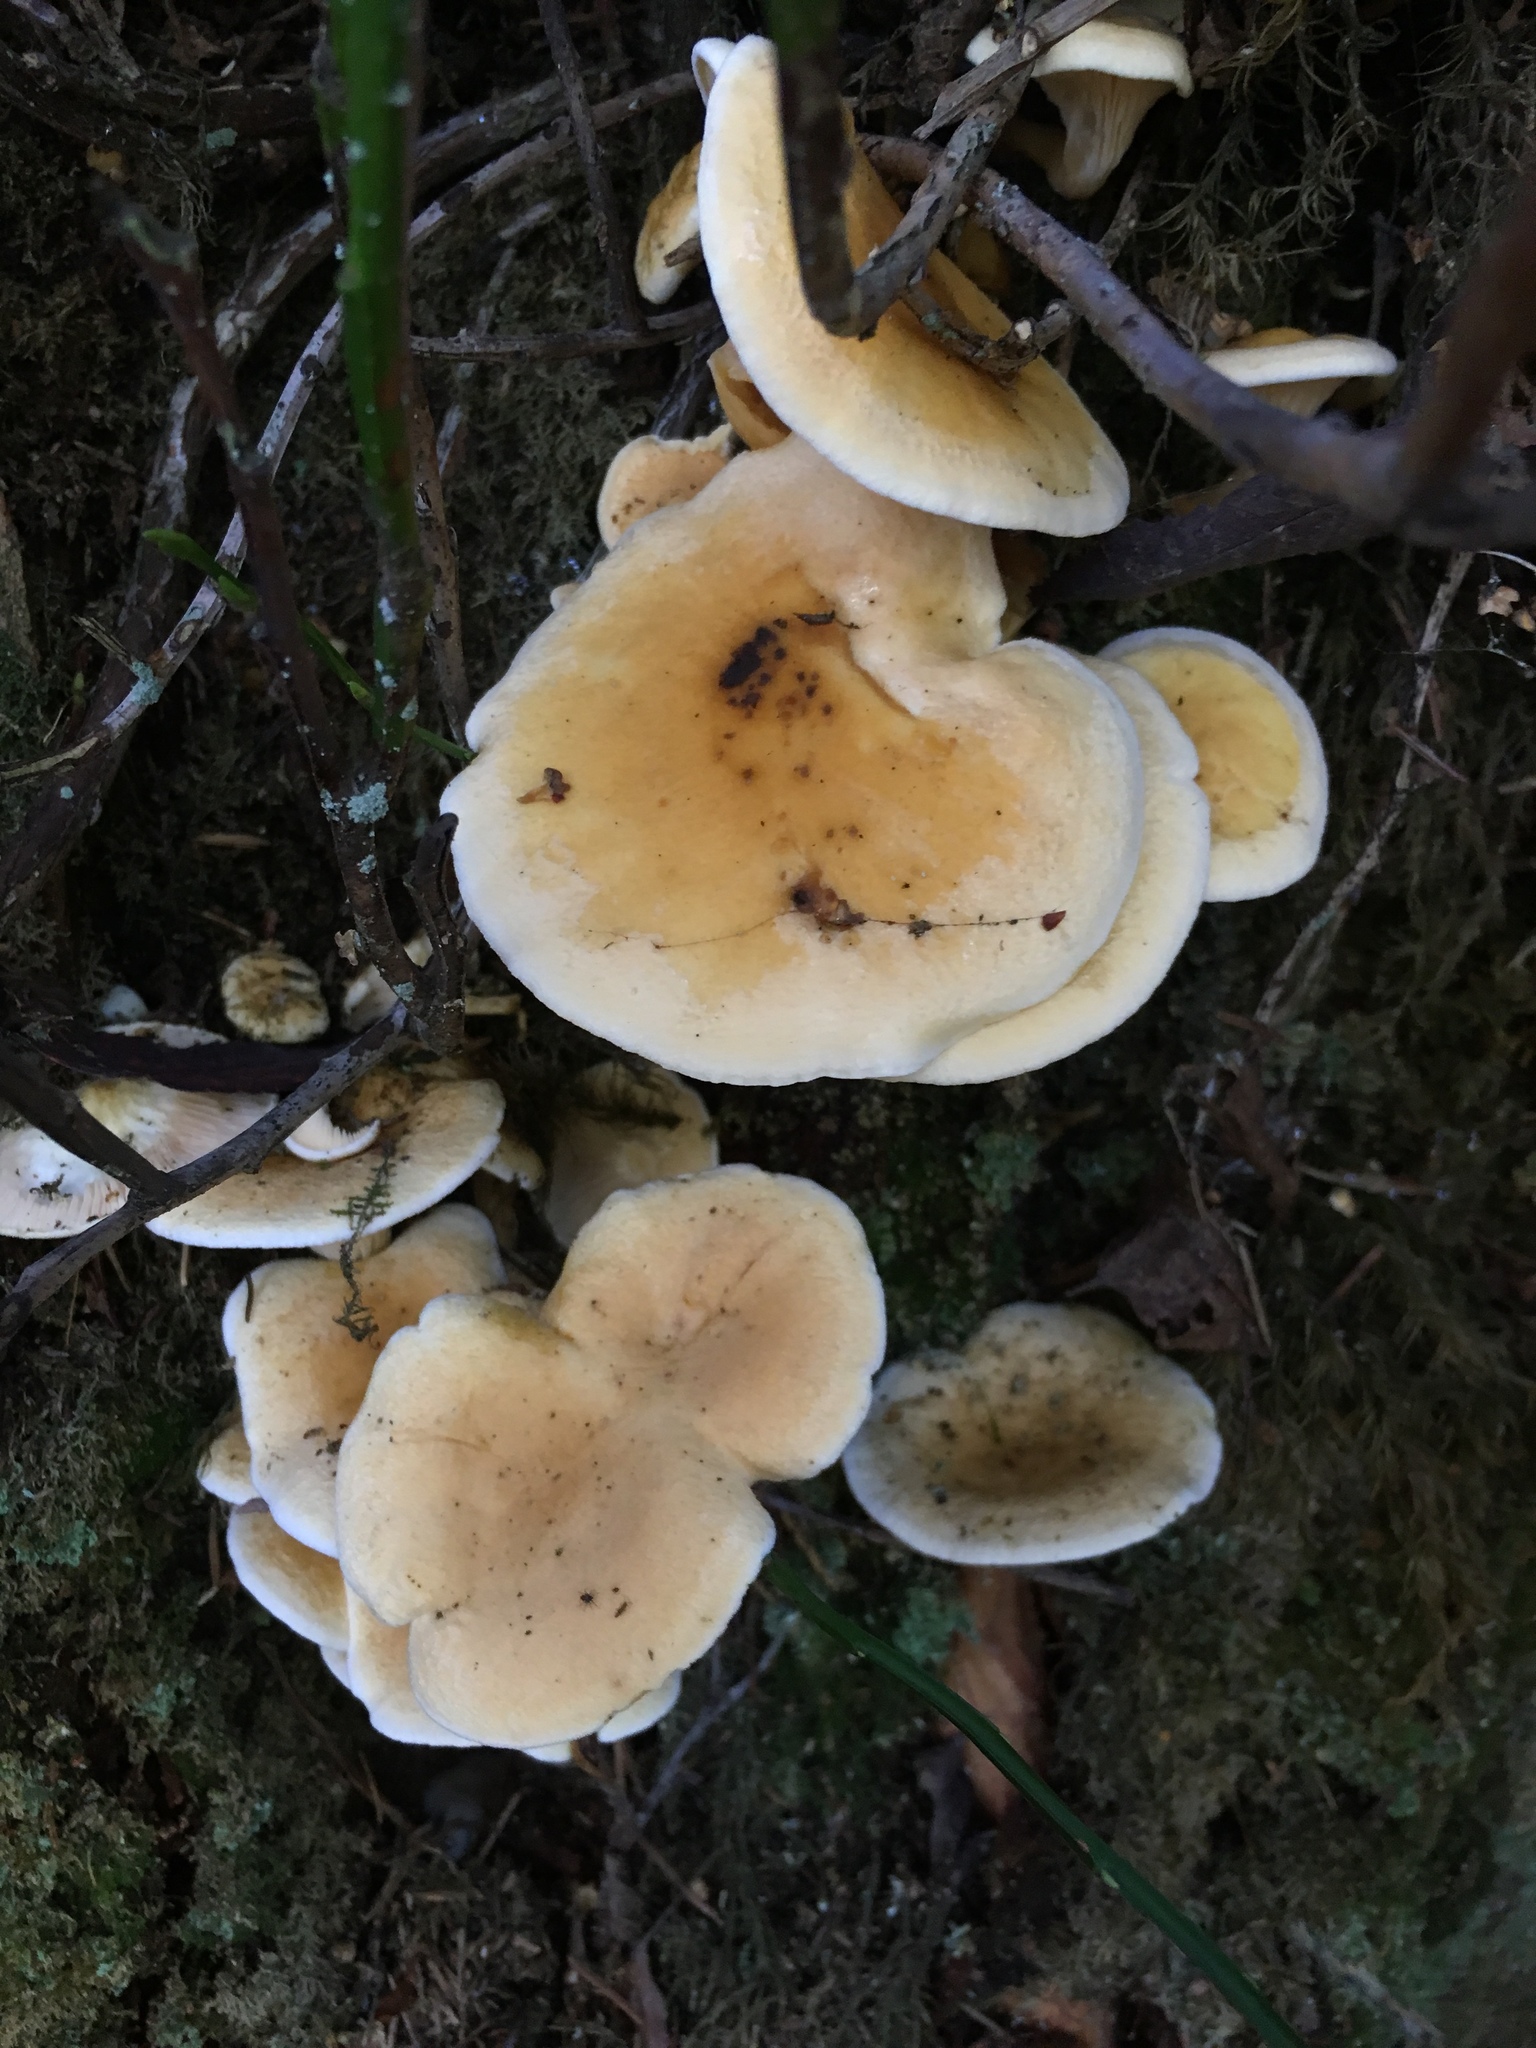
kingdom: Fungi
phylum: Basidiomycota
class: Agaricomycetes
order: Boletales
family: Hygrophoropsidaceae
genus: Hygrophoropsis
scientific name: Hygrophoropsis aurantiaca
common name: False chanterelle
